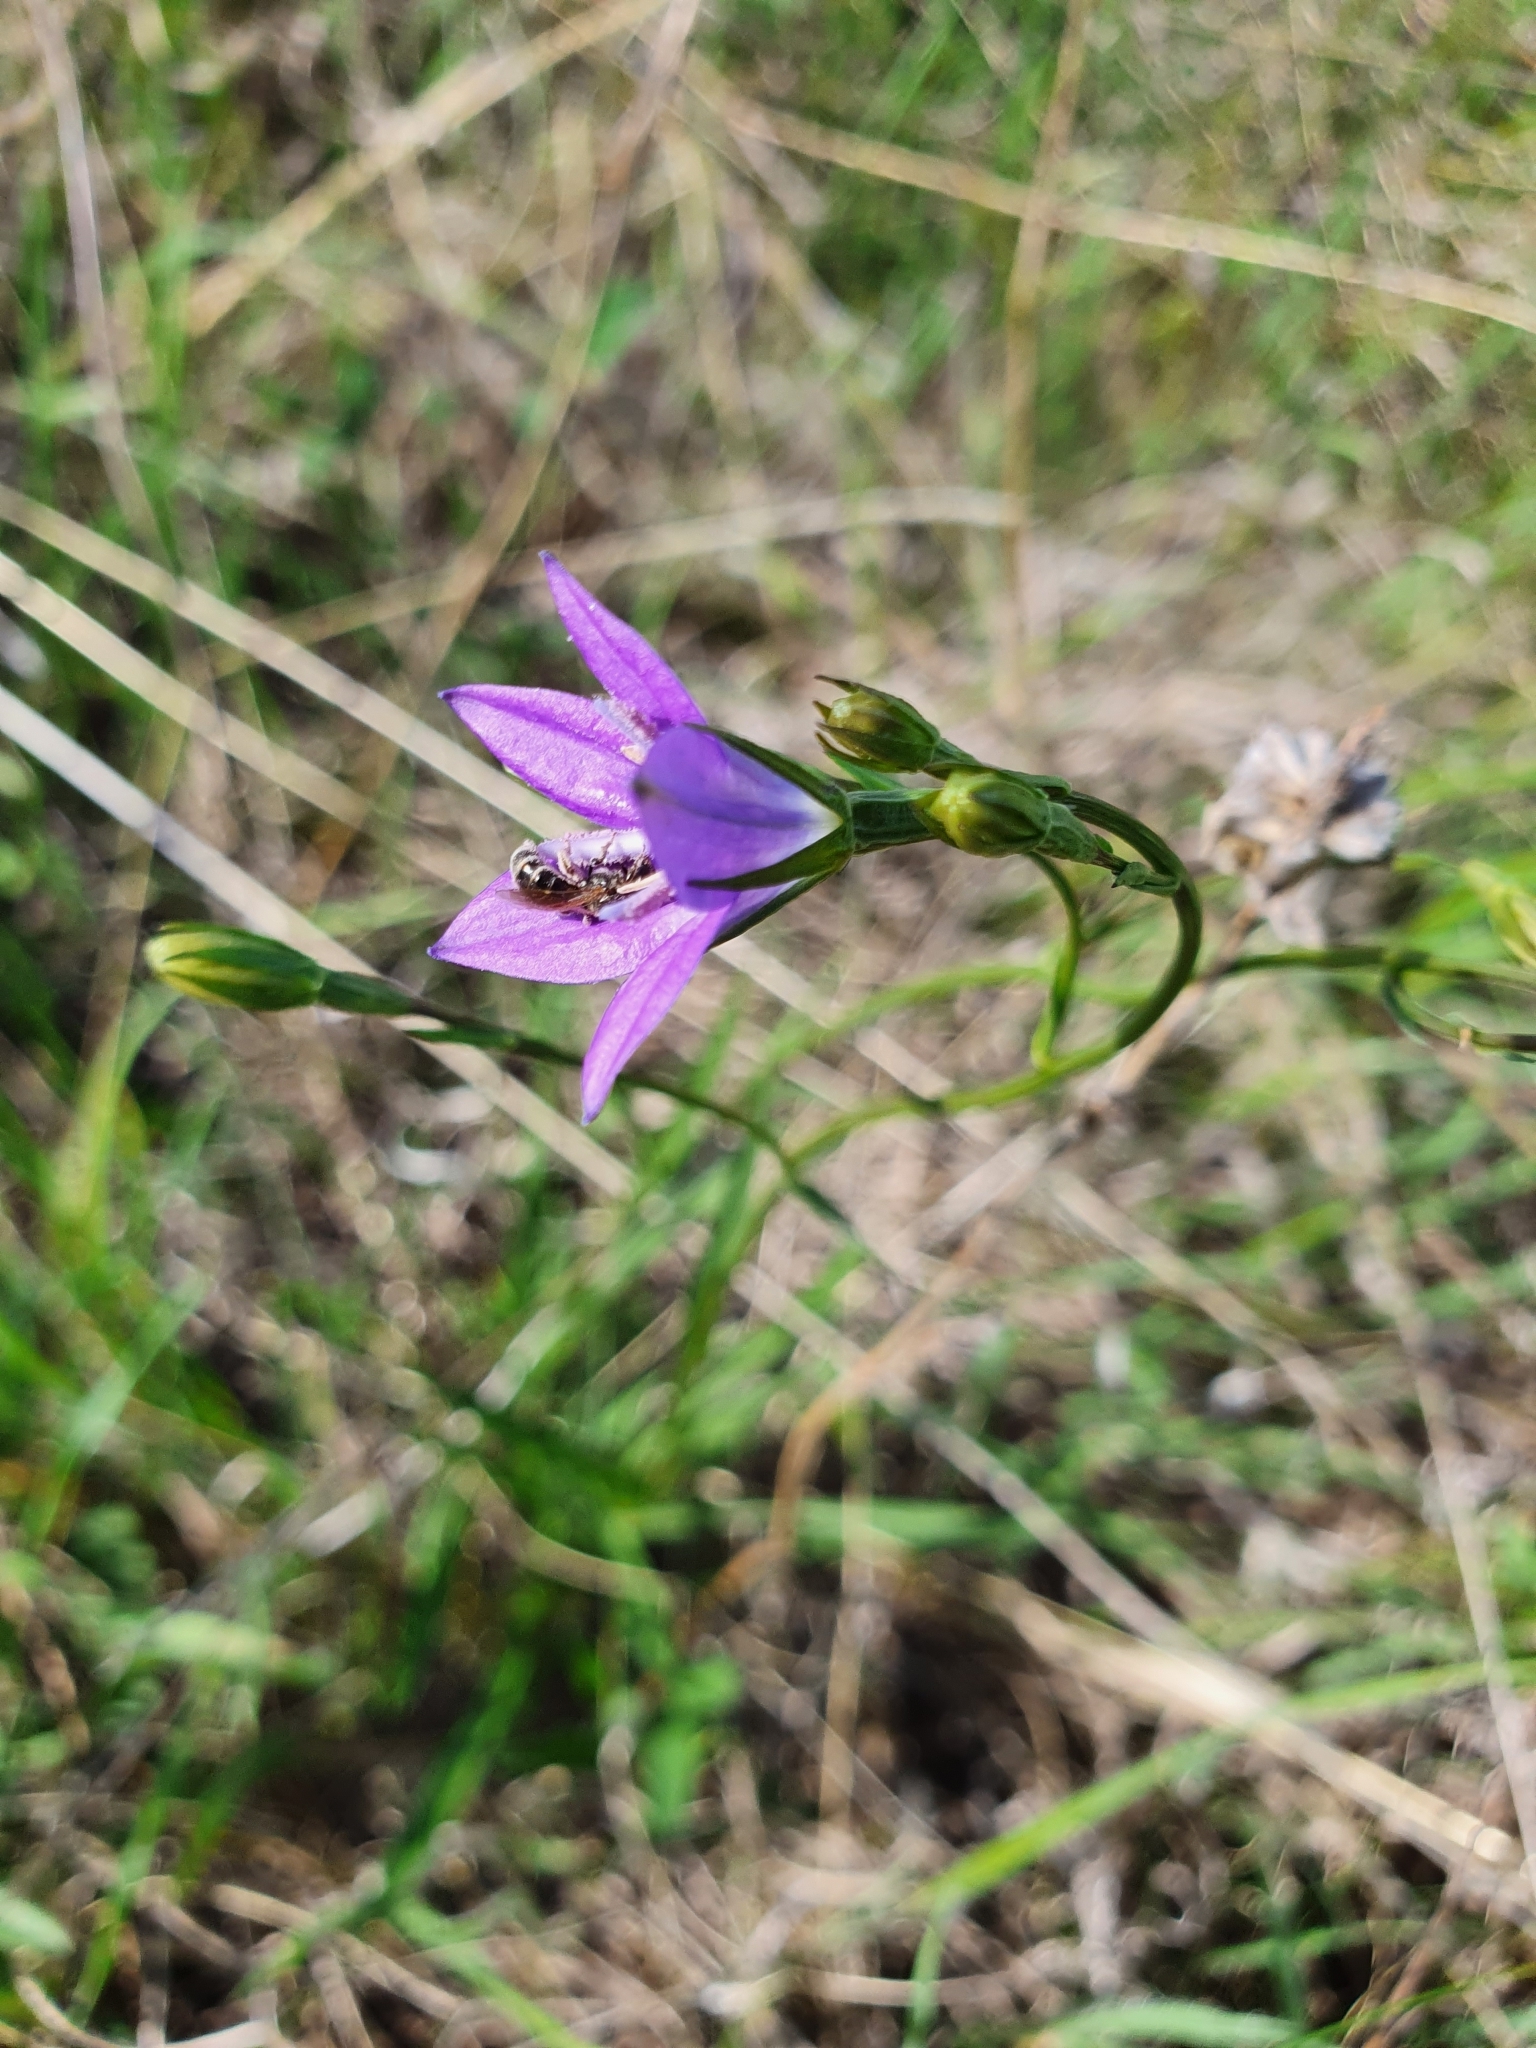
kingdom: Plantae
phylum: Tracheophyta
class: Magnoliopsida
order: Asterales
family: Campanulaceae
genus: Campanula
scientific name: Campanula stevenii
